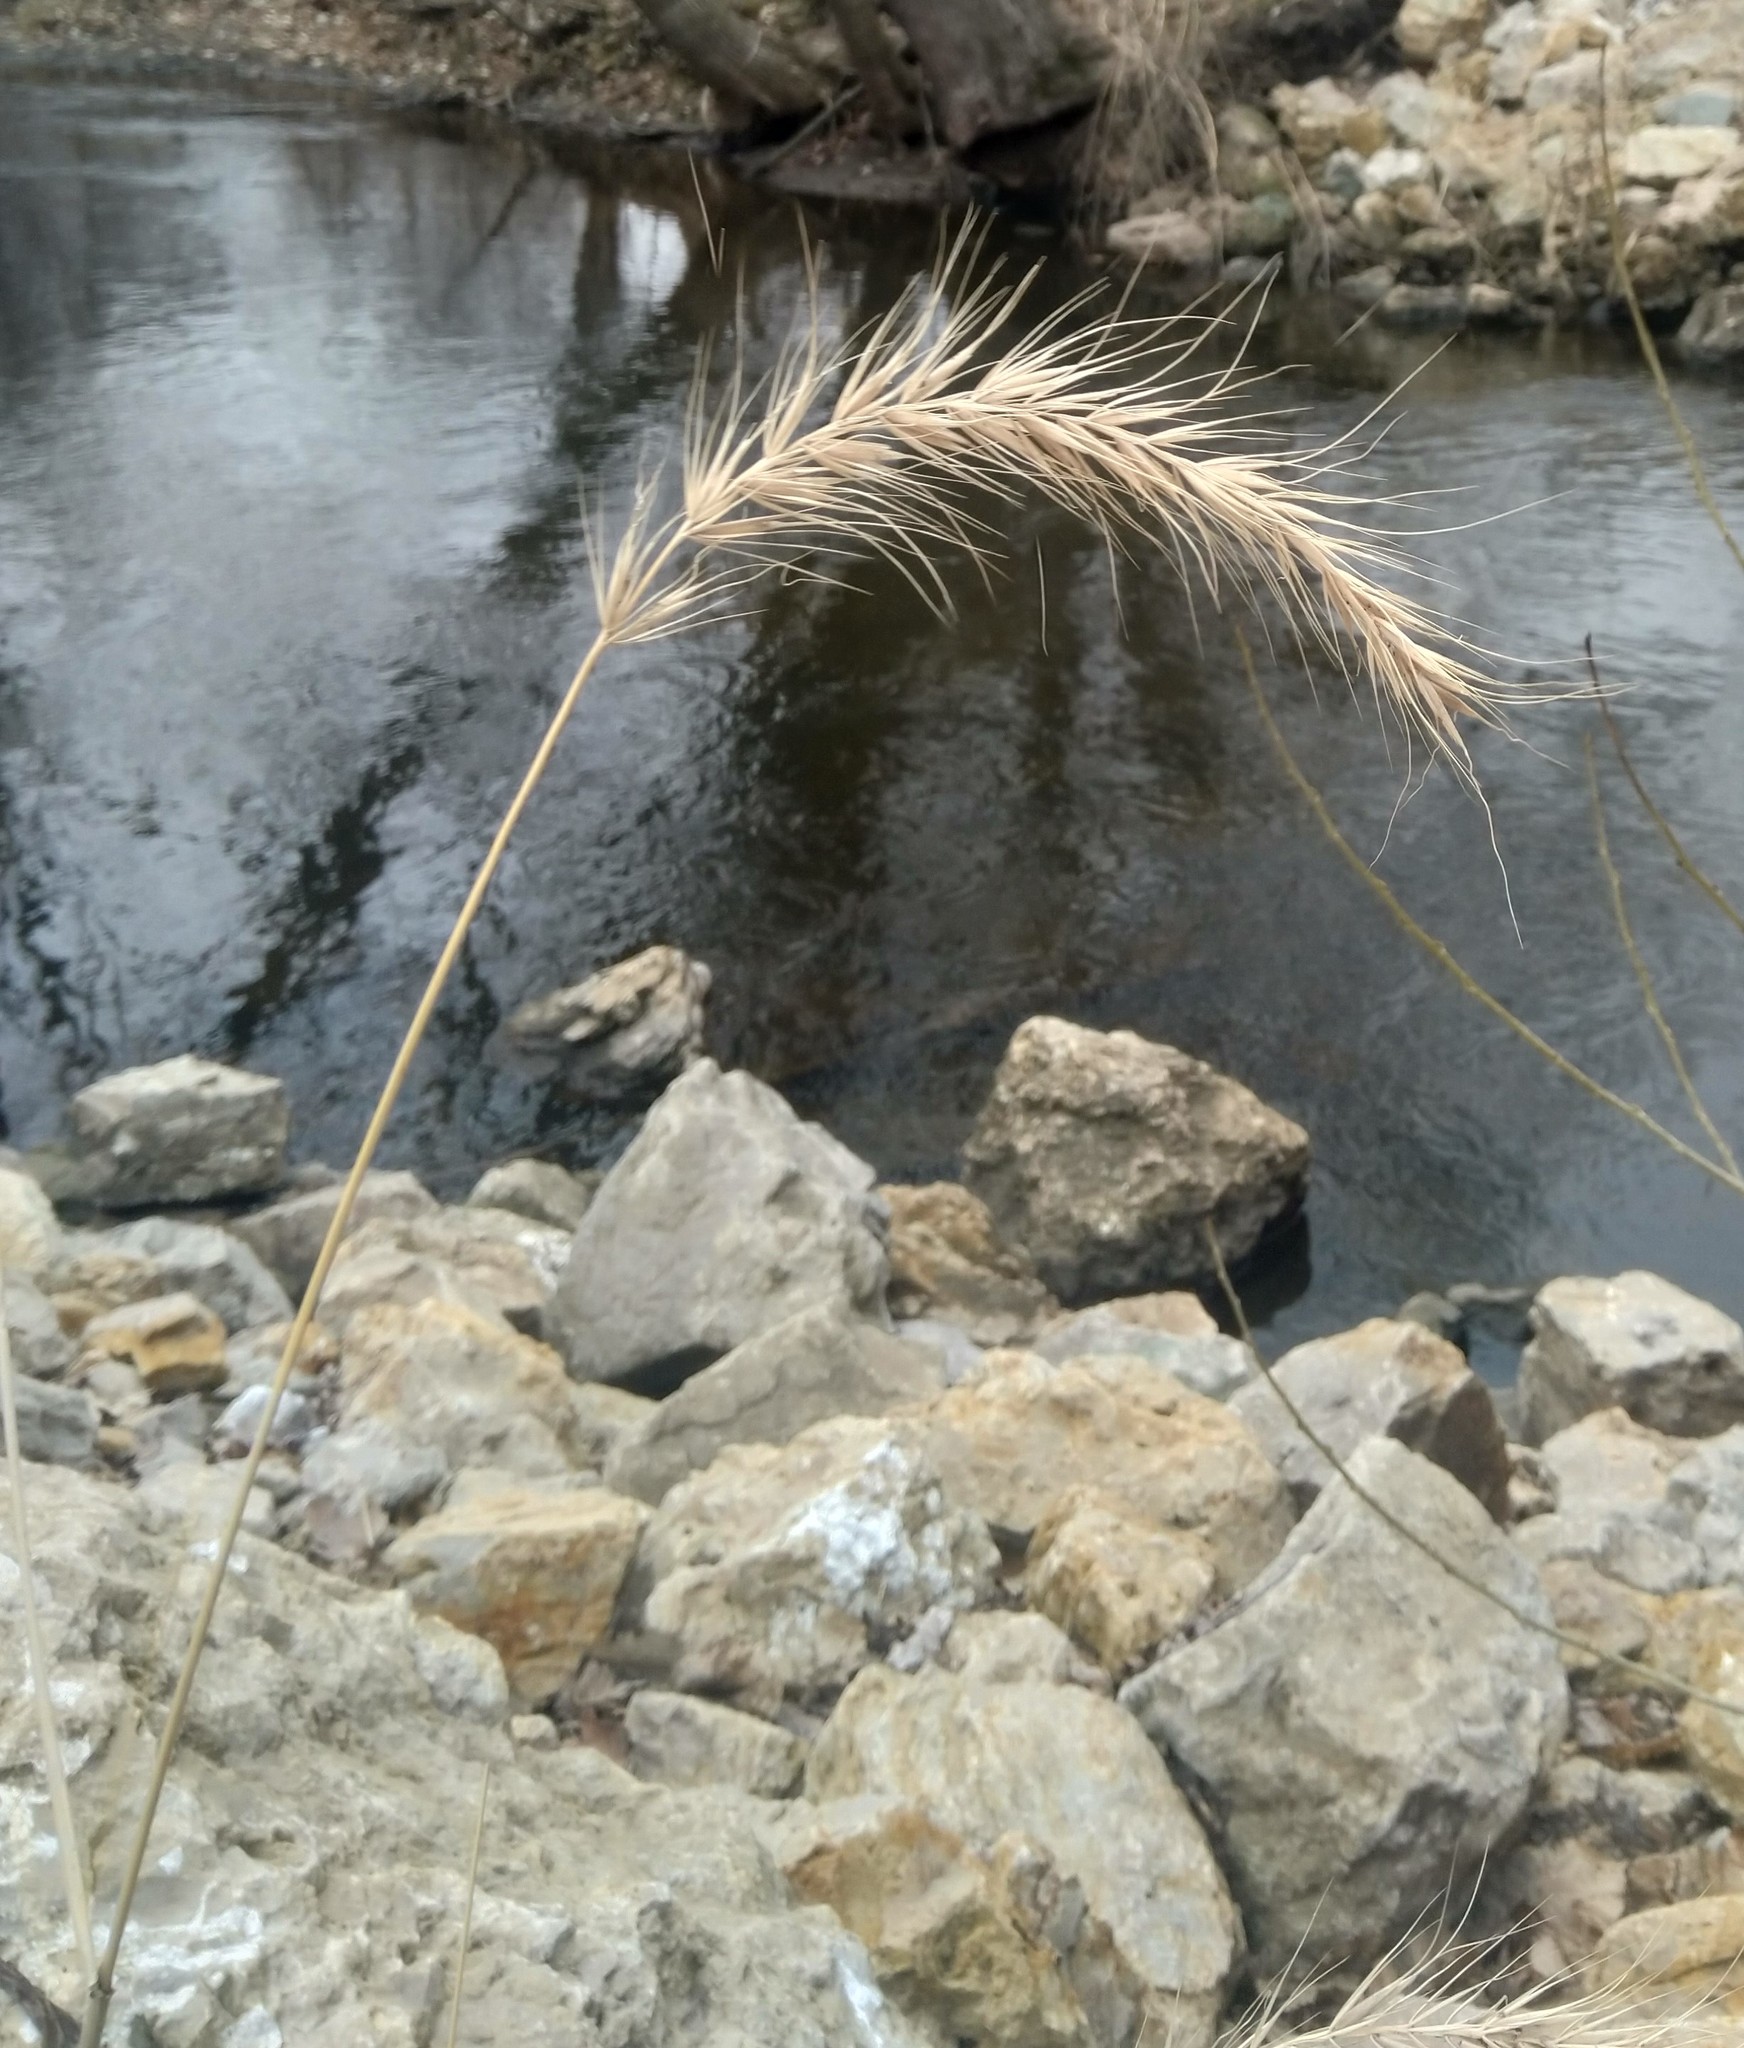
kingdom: Plantae
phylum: Tracheophyta
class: Liliopsida
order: Poales
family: Poaceae
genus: Elymus
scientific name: Elymus canadensis
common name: Canada wild rye
